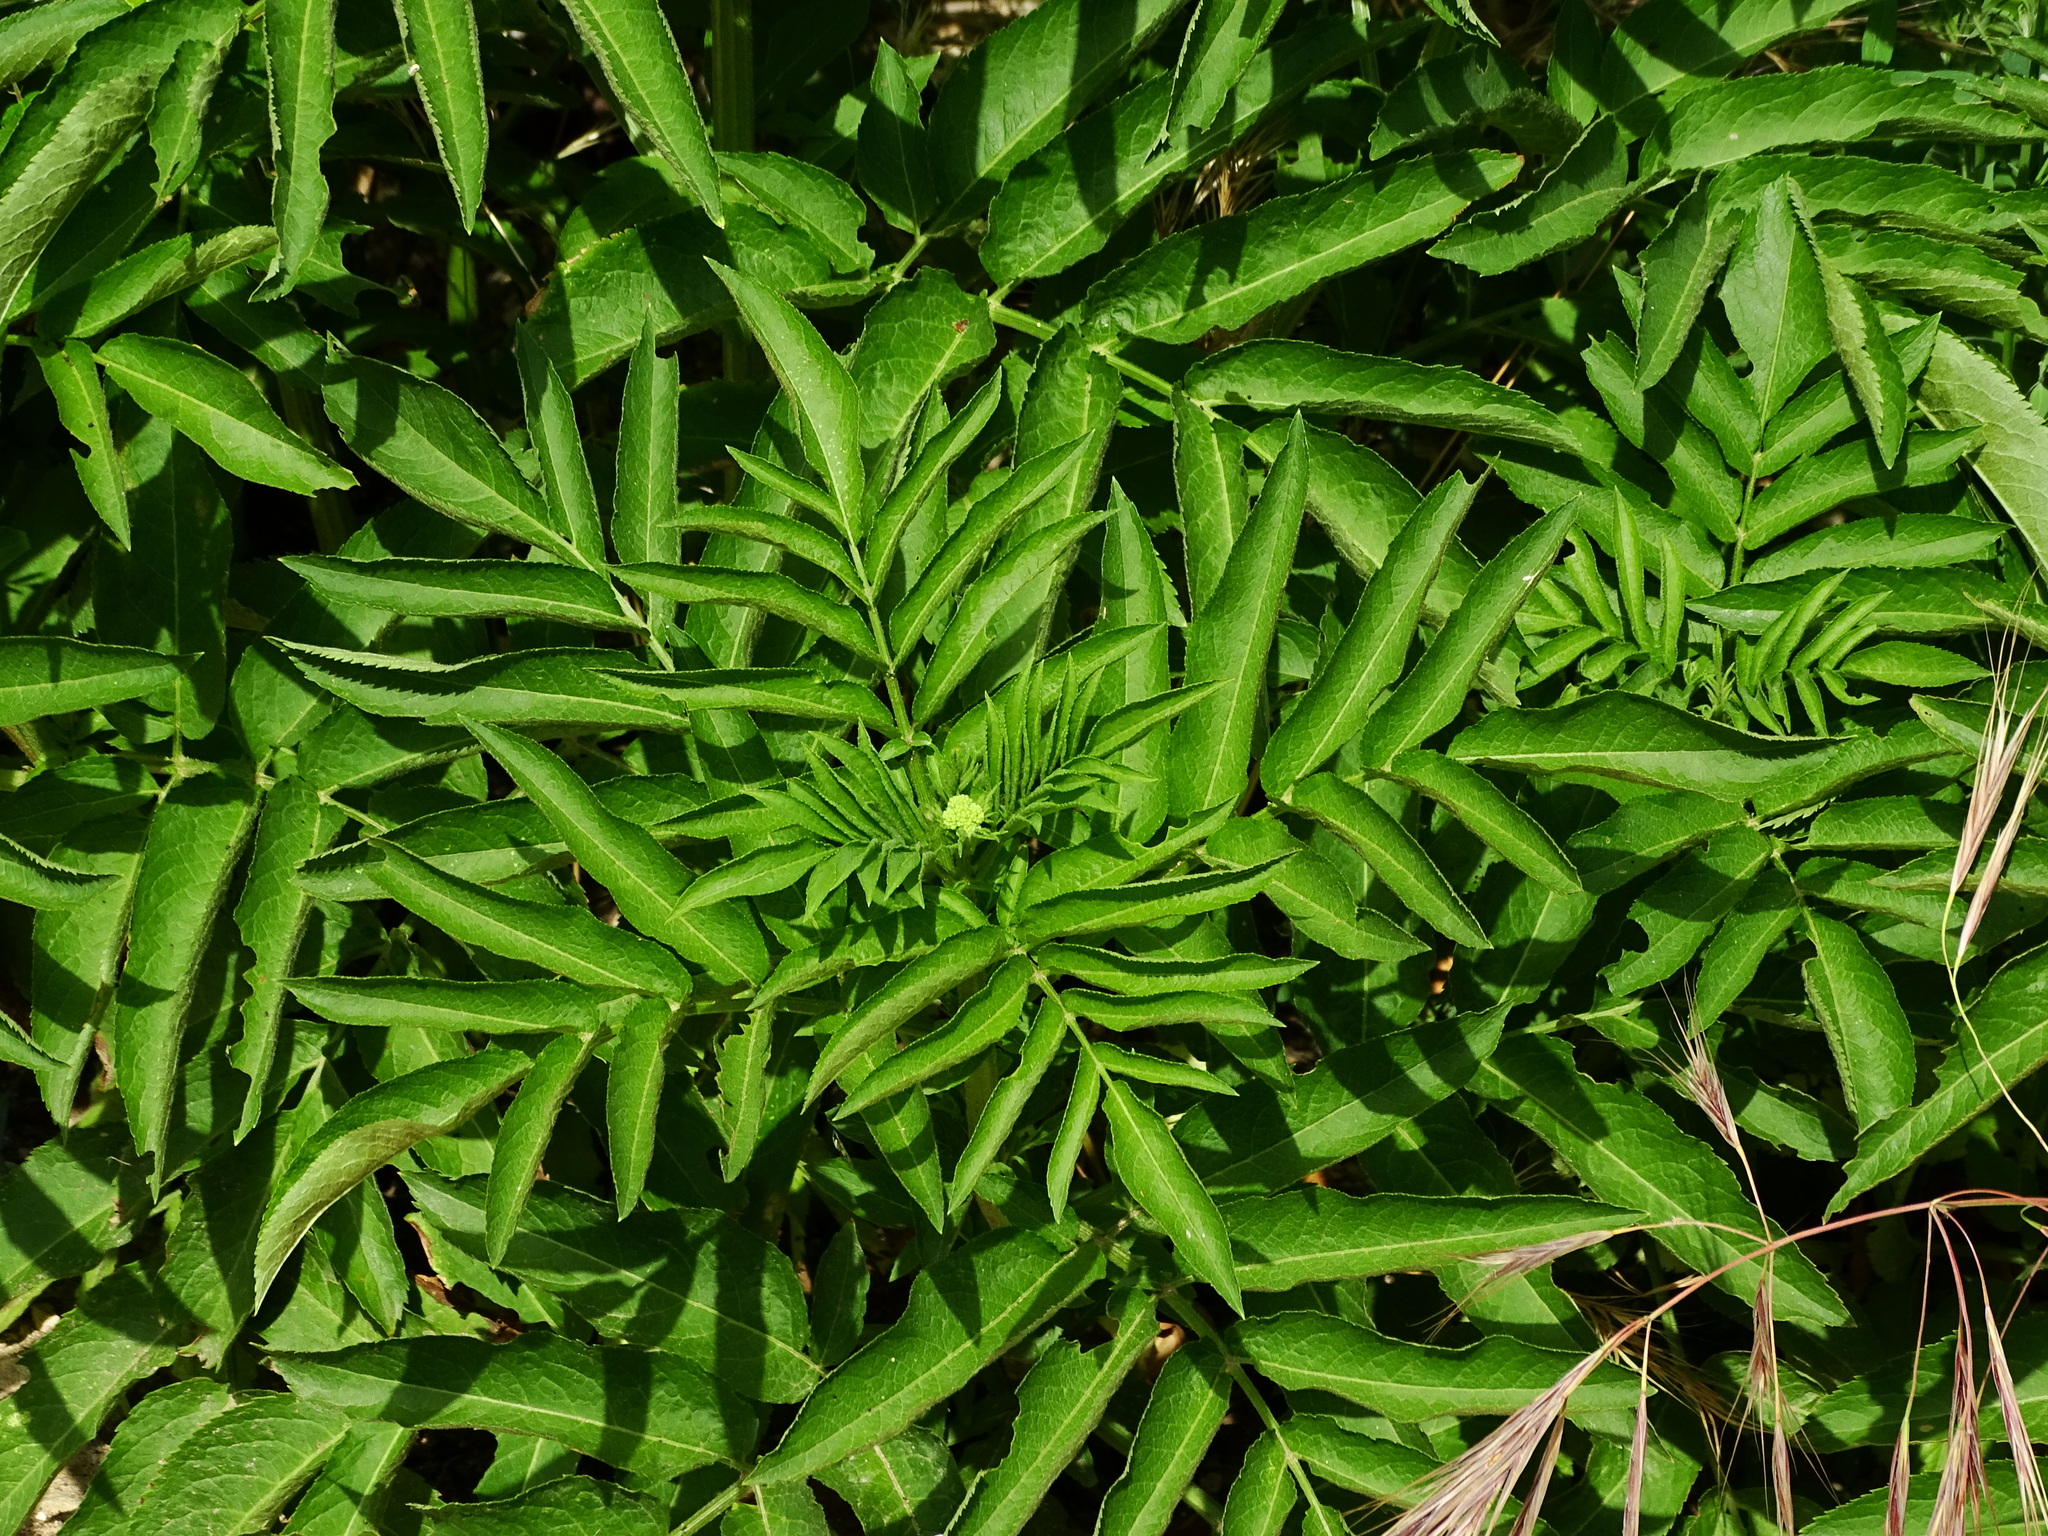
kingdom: Plantae
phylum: Tracheophyta
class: Magnoliopsida
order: Dipsacales
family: Viburnaceae
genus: Sambucus
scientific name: Sambucus ebulus
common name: Dwarf elder
